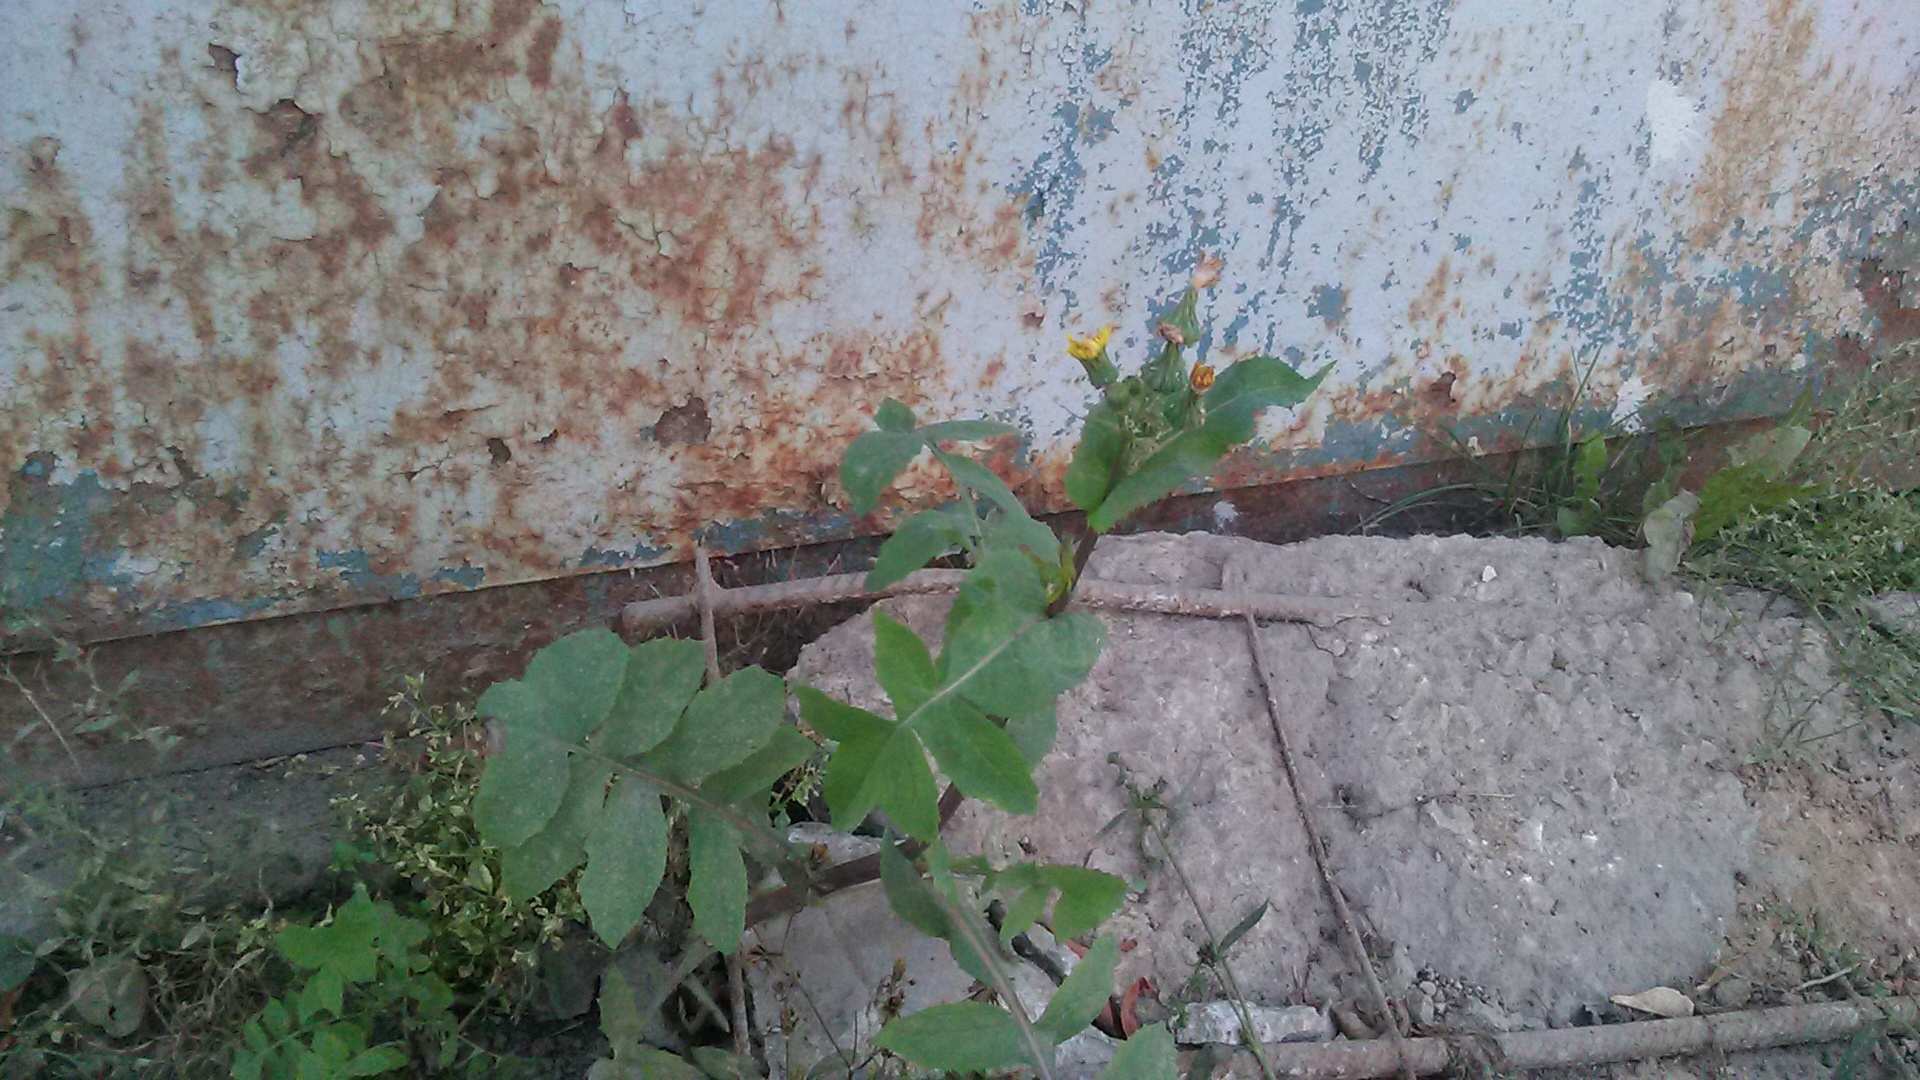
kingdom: Plantae
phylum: Tracheophyta
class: Magnoliopsida
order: Asterales
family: Asteraceae
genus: Sonchus
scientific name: Sonchus oleraceus
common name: Common sowthistle
